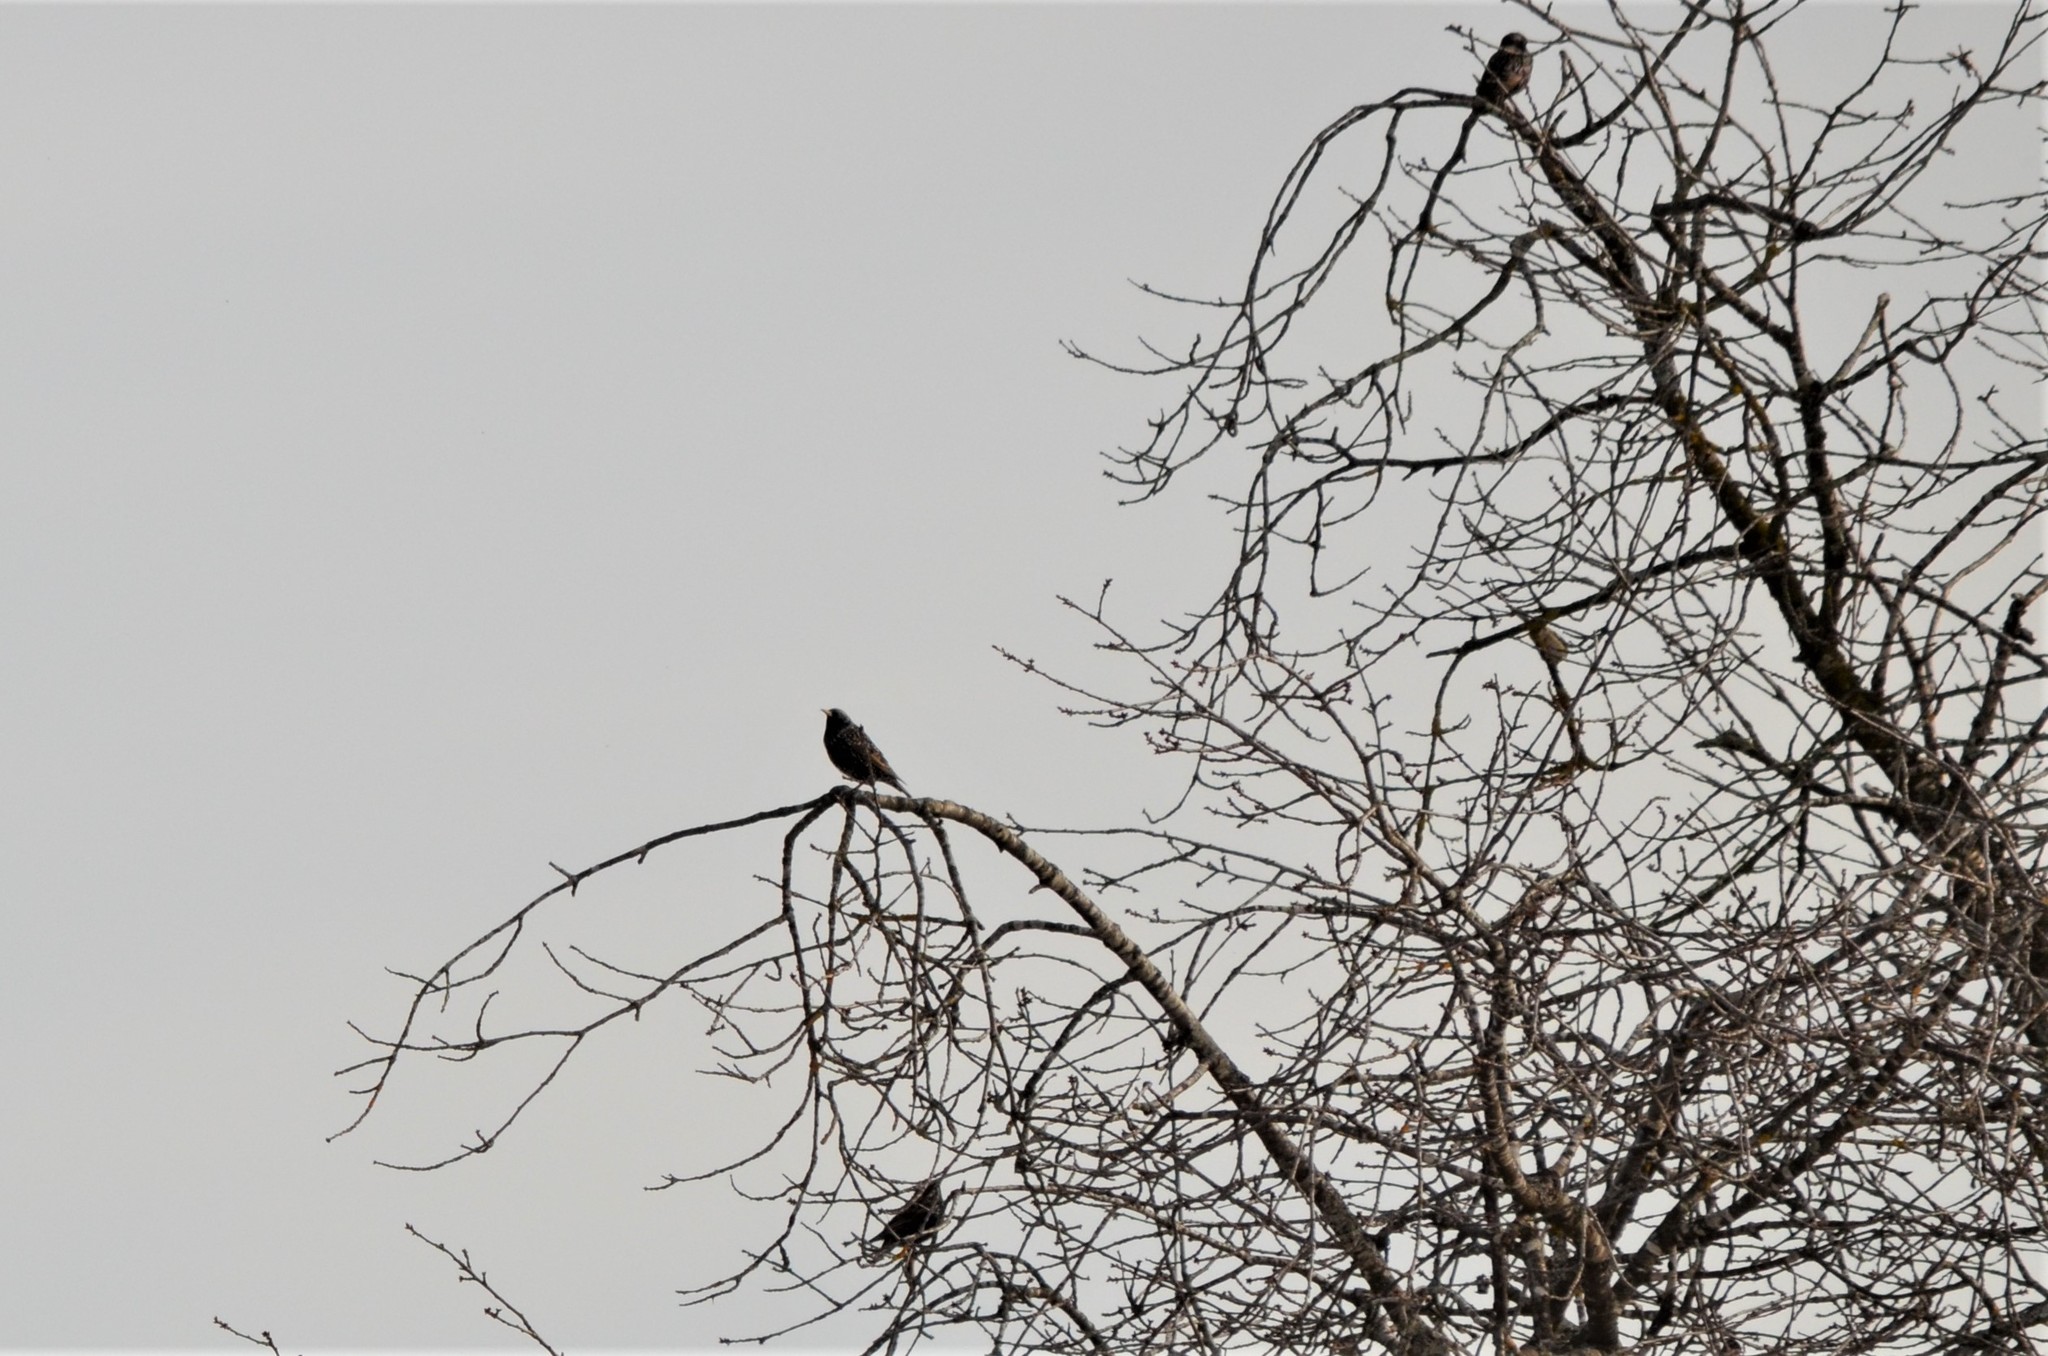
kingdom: Animalia
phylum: Chordata
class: Aves
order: Passeriformes
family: Sturnidae
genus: Sturnus
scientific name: Sturnus vulgaris
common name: Common starling
